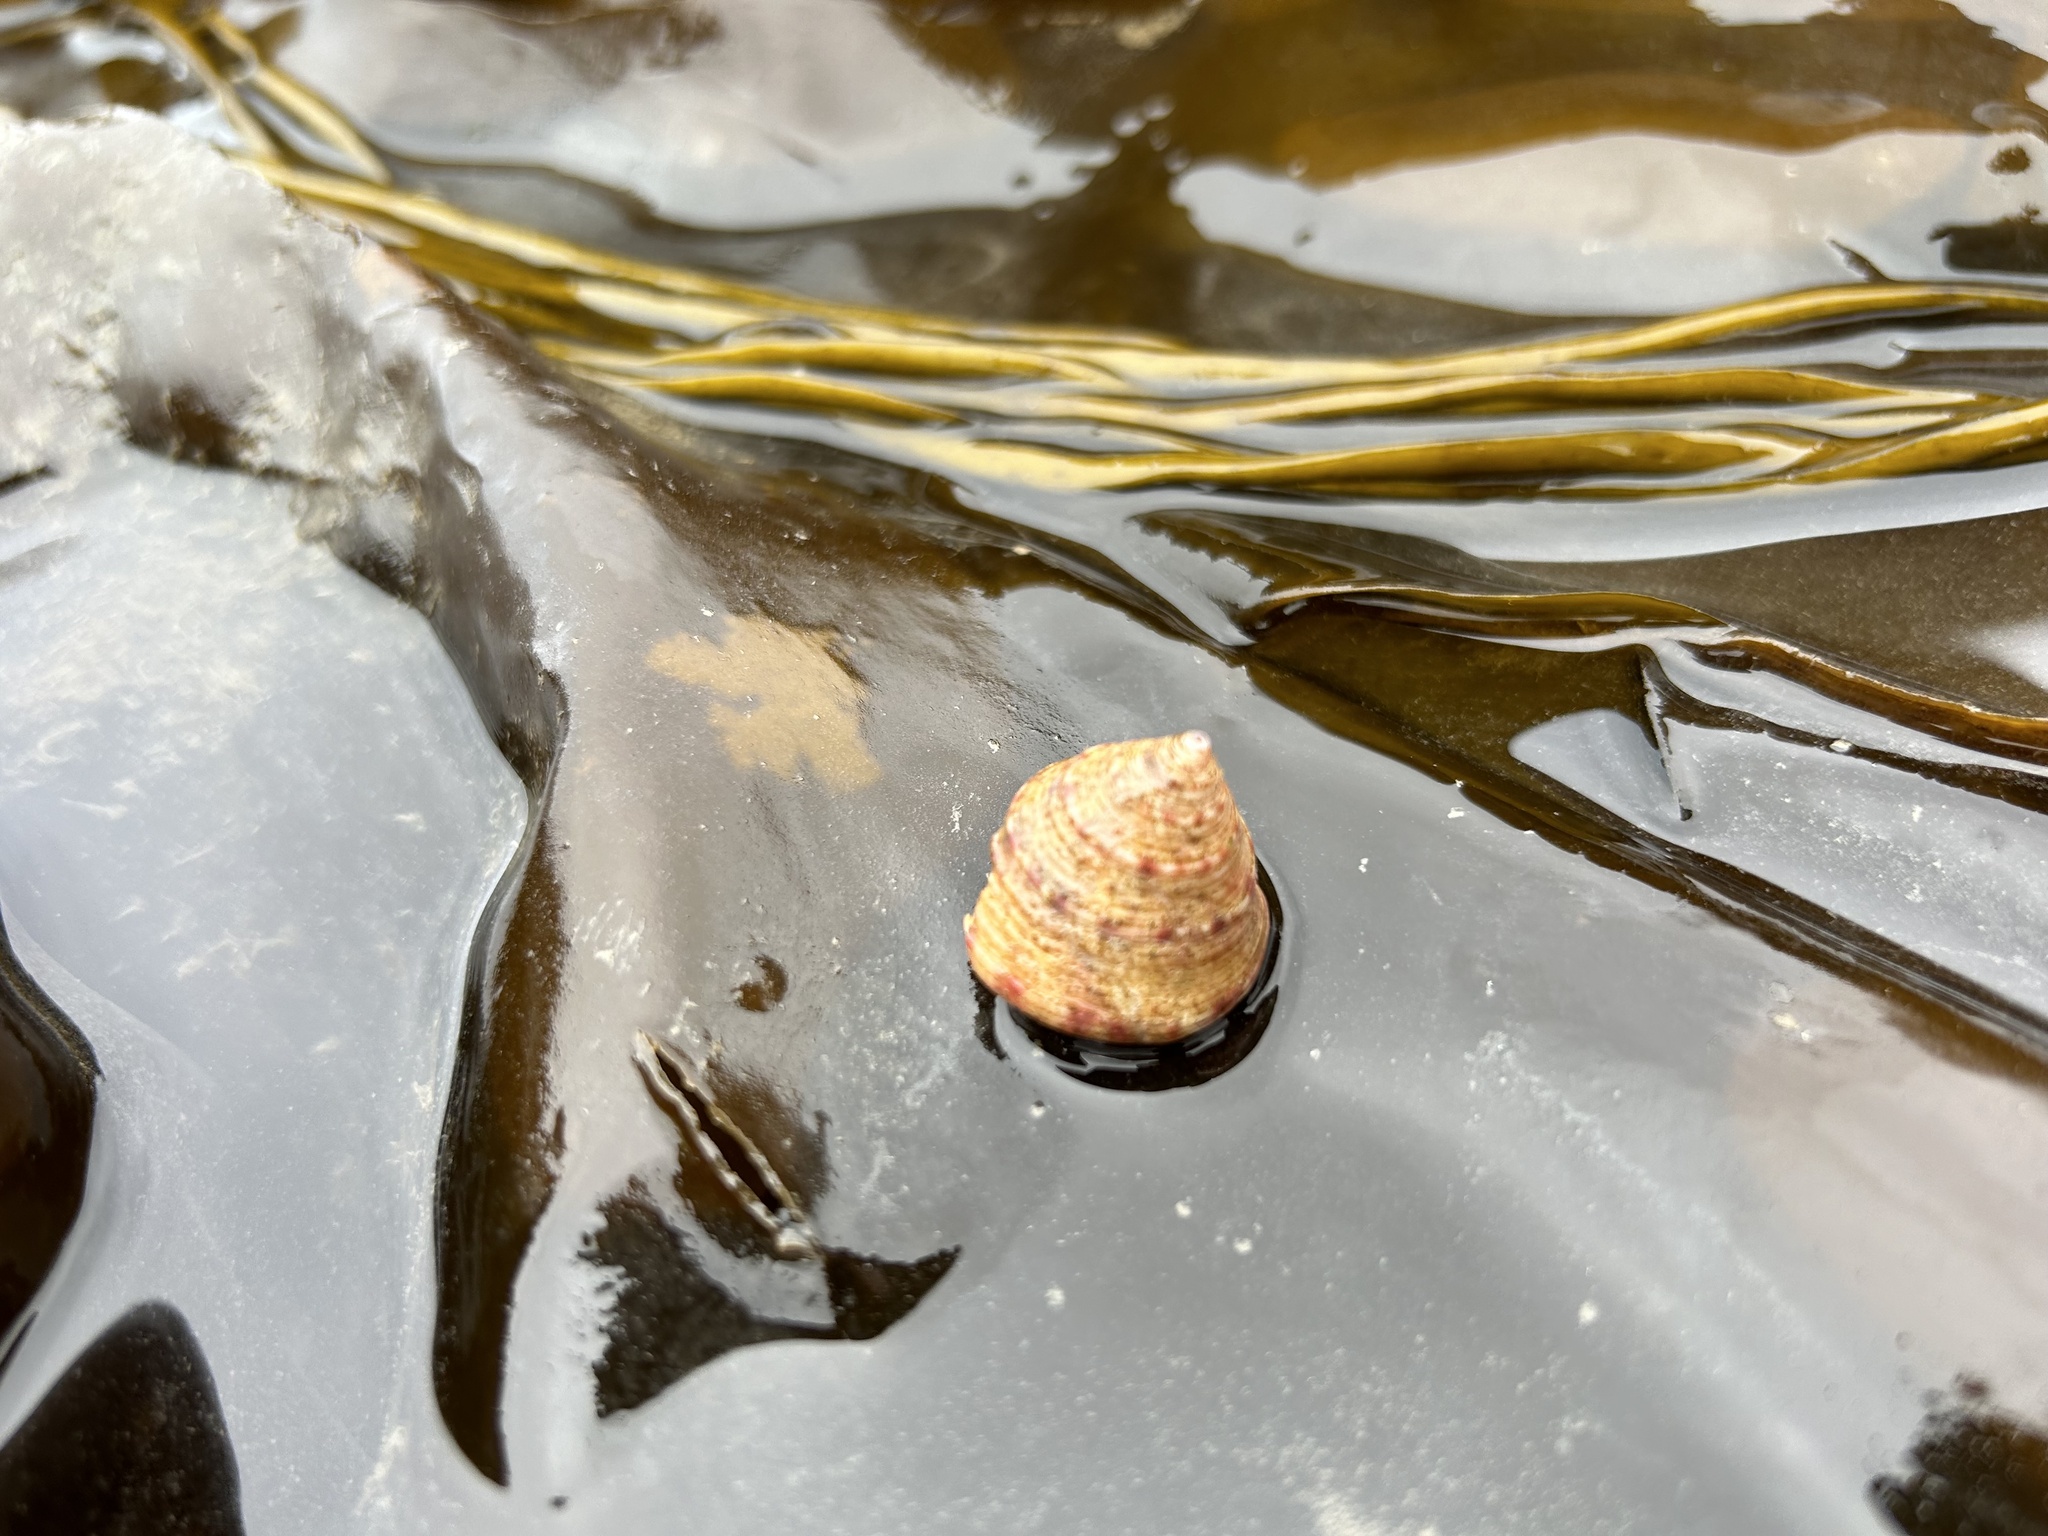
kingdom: Animalia
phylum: Mollusca
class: Gastropoda
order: Trochida
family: Calliostomatidae
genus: Calliostoma
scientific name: Calliostoma zizyphinum
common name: Painted top shell
